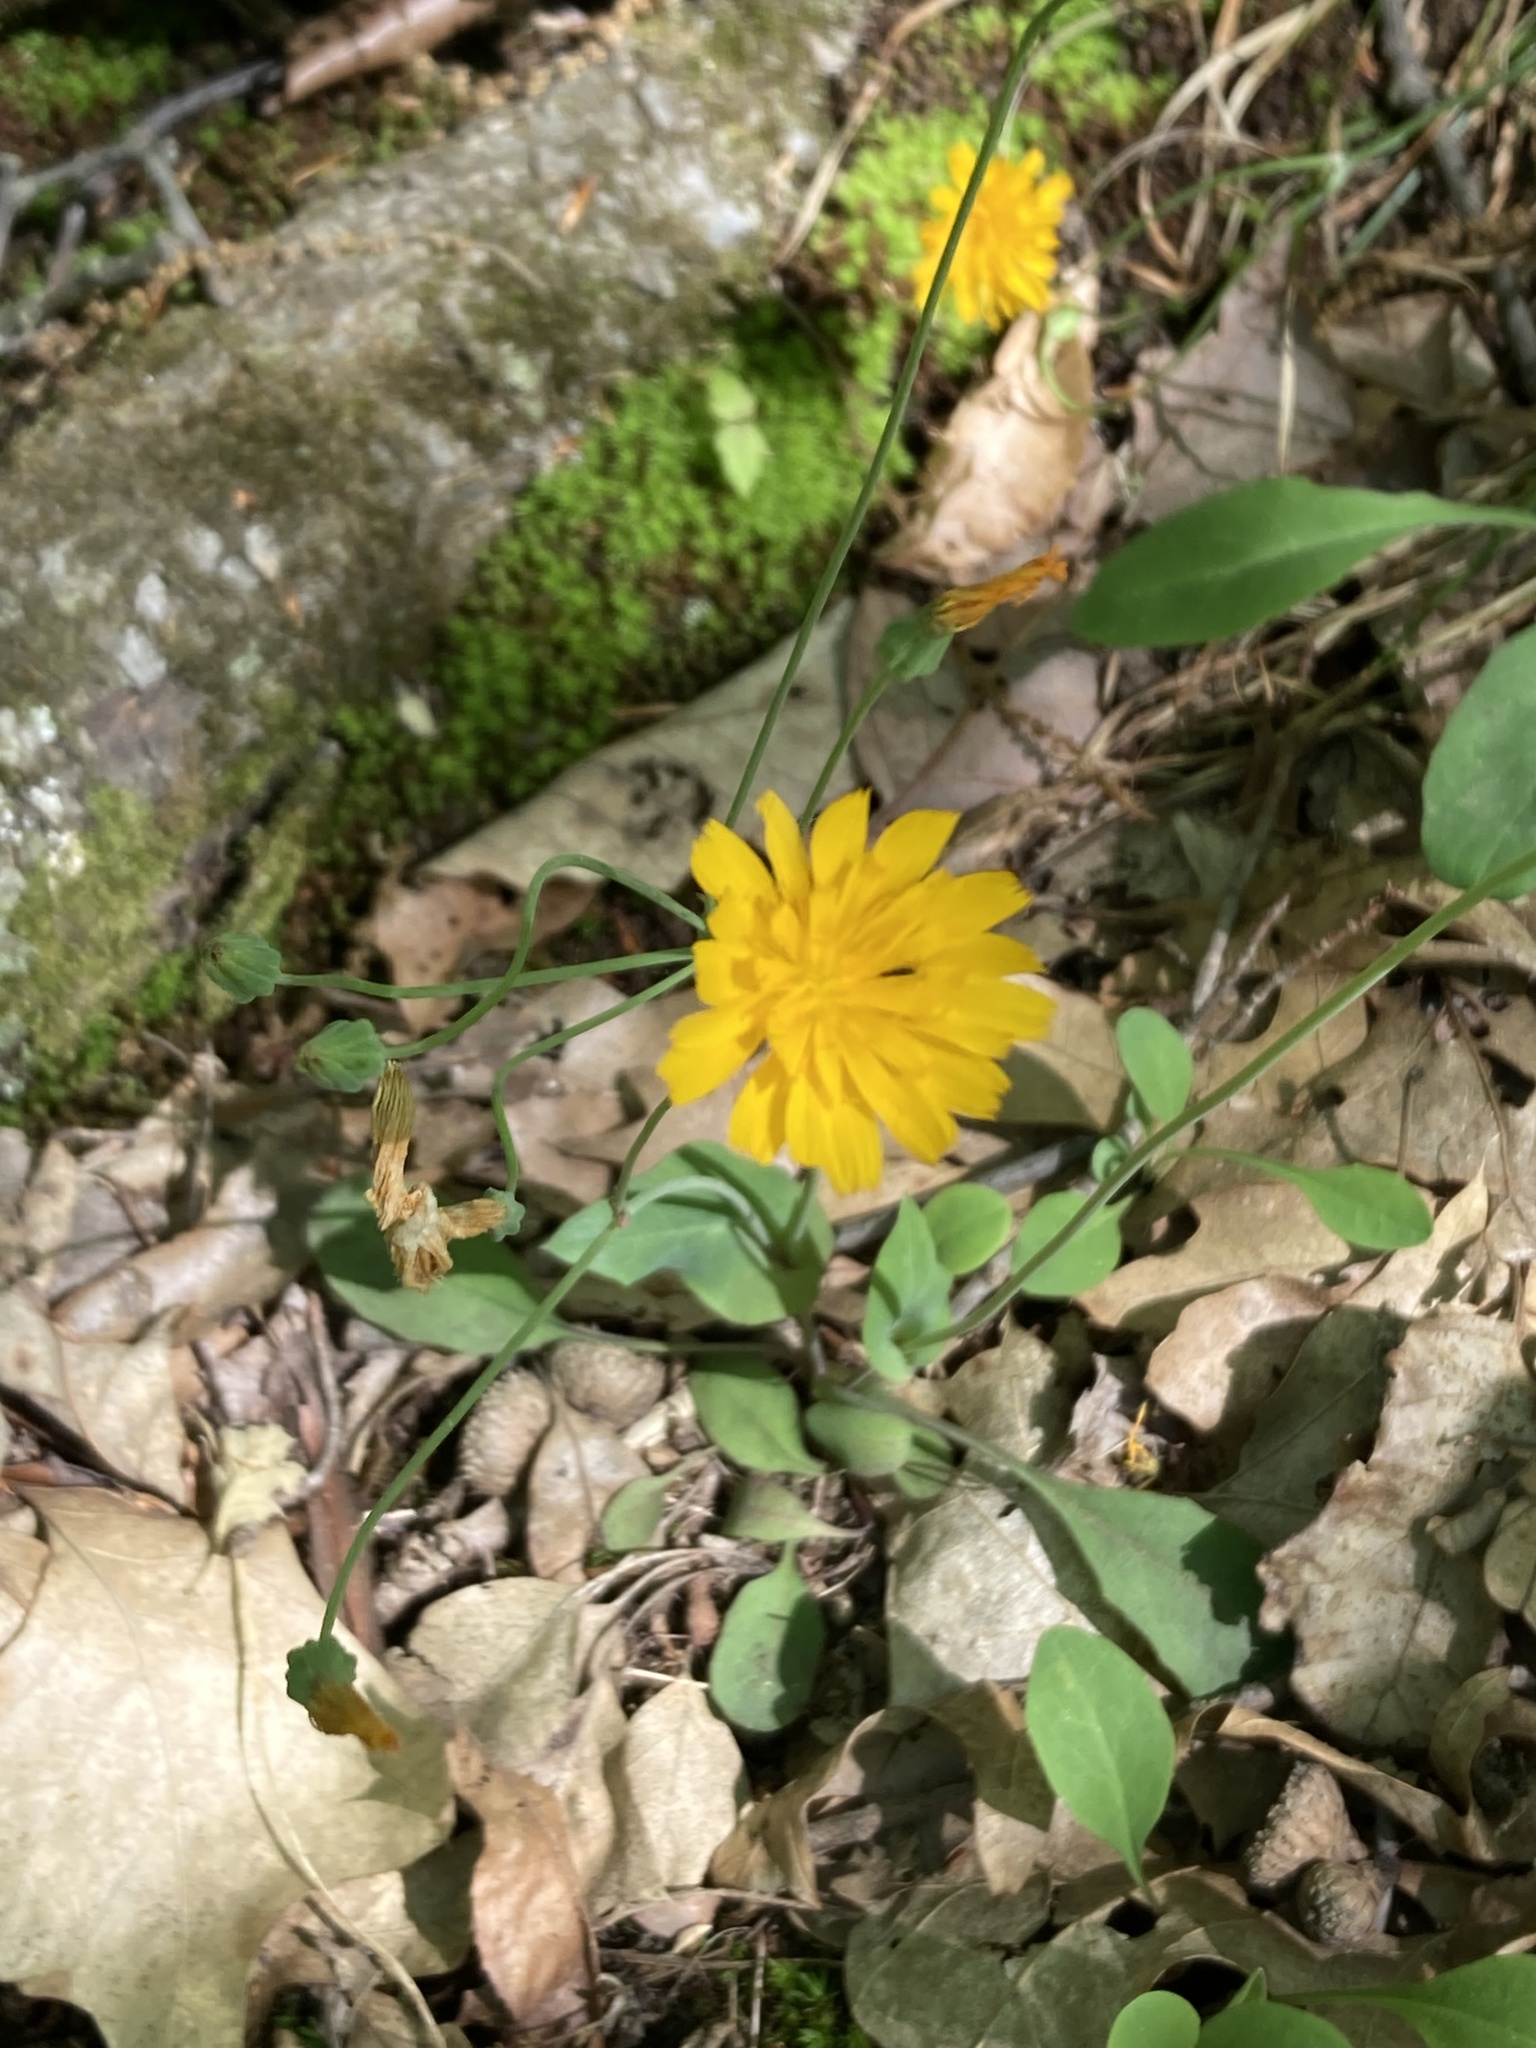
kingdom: Plantae
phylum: Tracheophyta
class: Magnoliopsida
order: Asterales
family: Asteraceae
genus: Krigia
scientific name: Krigia biflora
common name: Orange dwarf-dandelion
